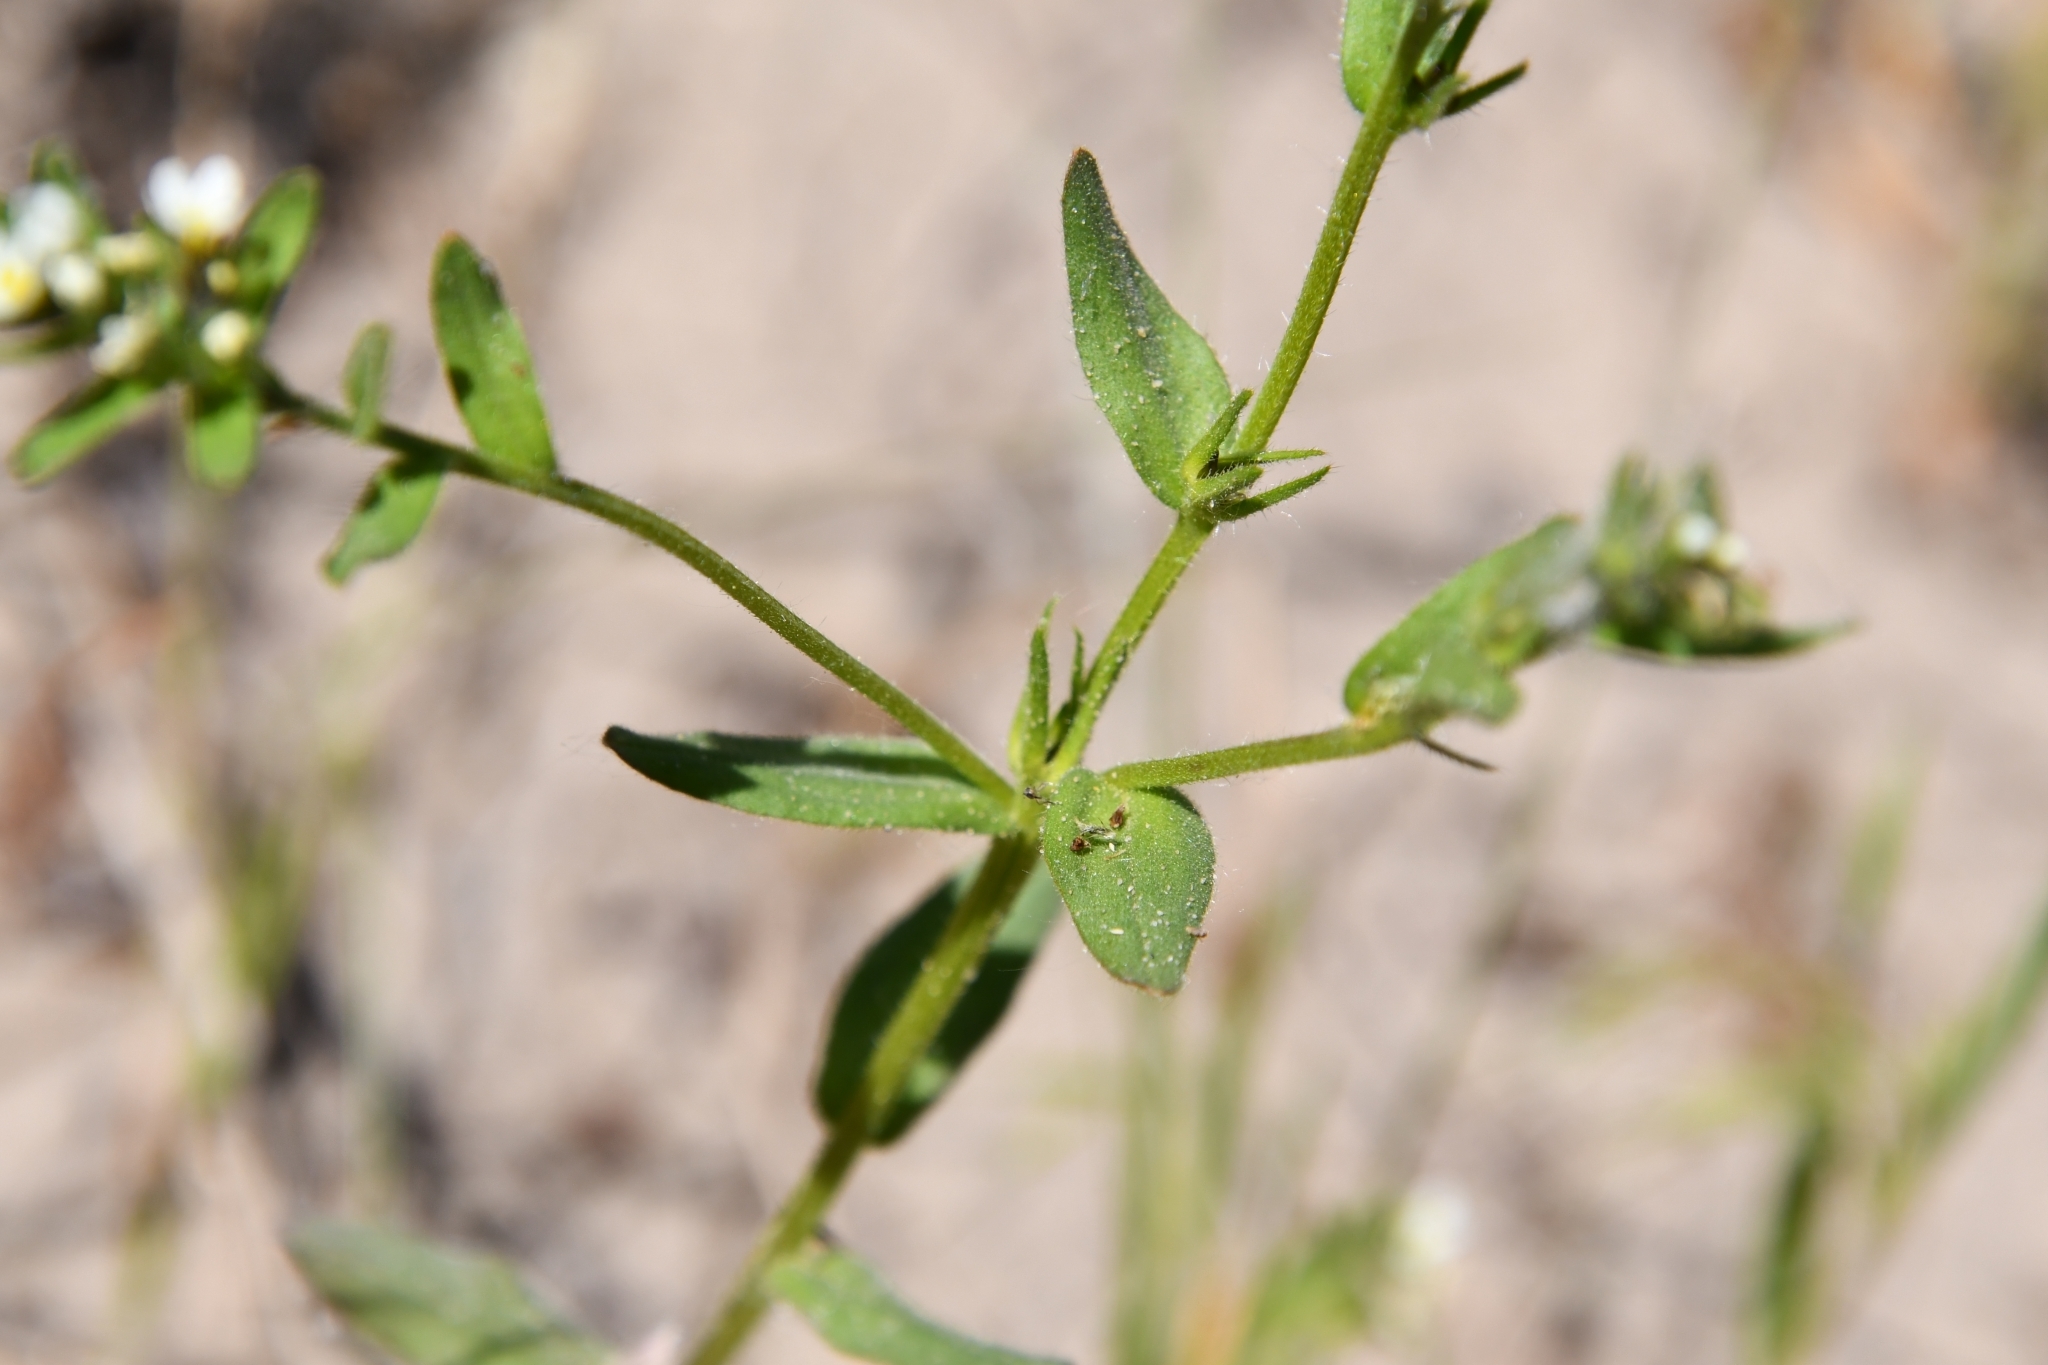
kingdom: Plantae
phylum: Tracheophyta
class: Magnoliopsida
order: Boraginales
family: Boraginaceae
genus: Buglossoides
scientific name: Buglossoides czernjajevii
